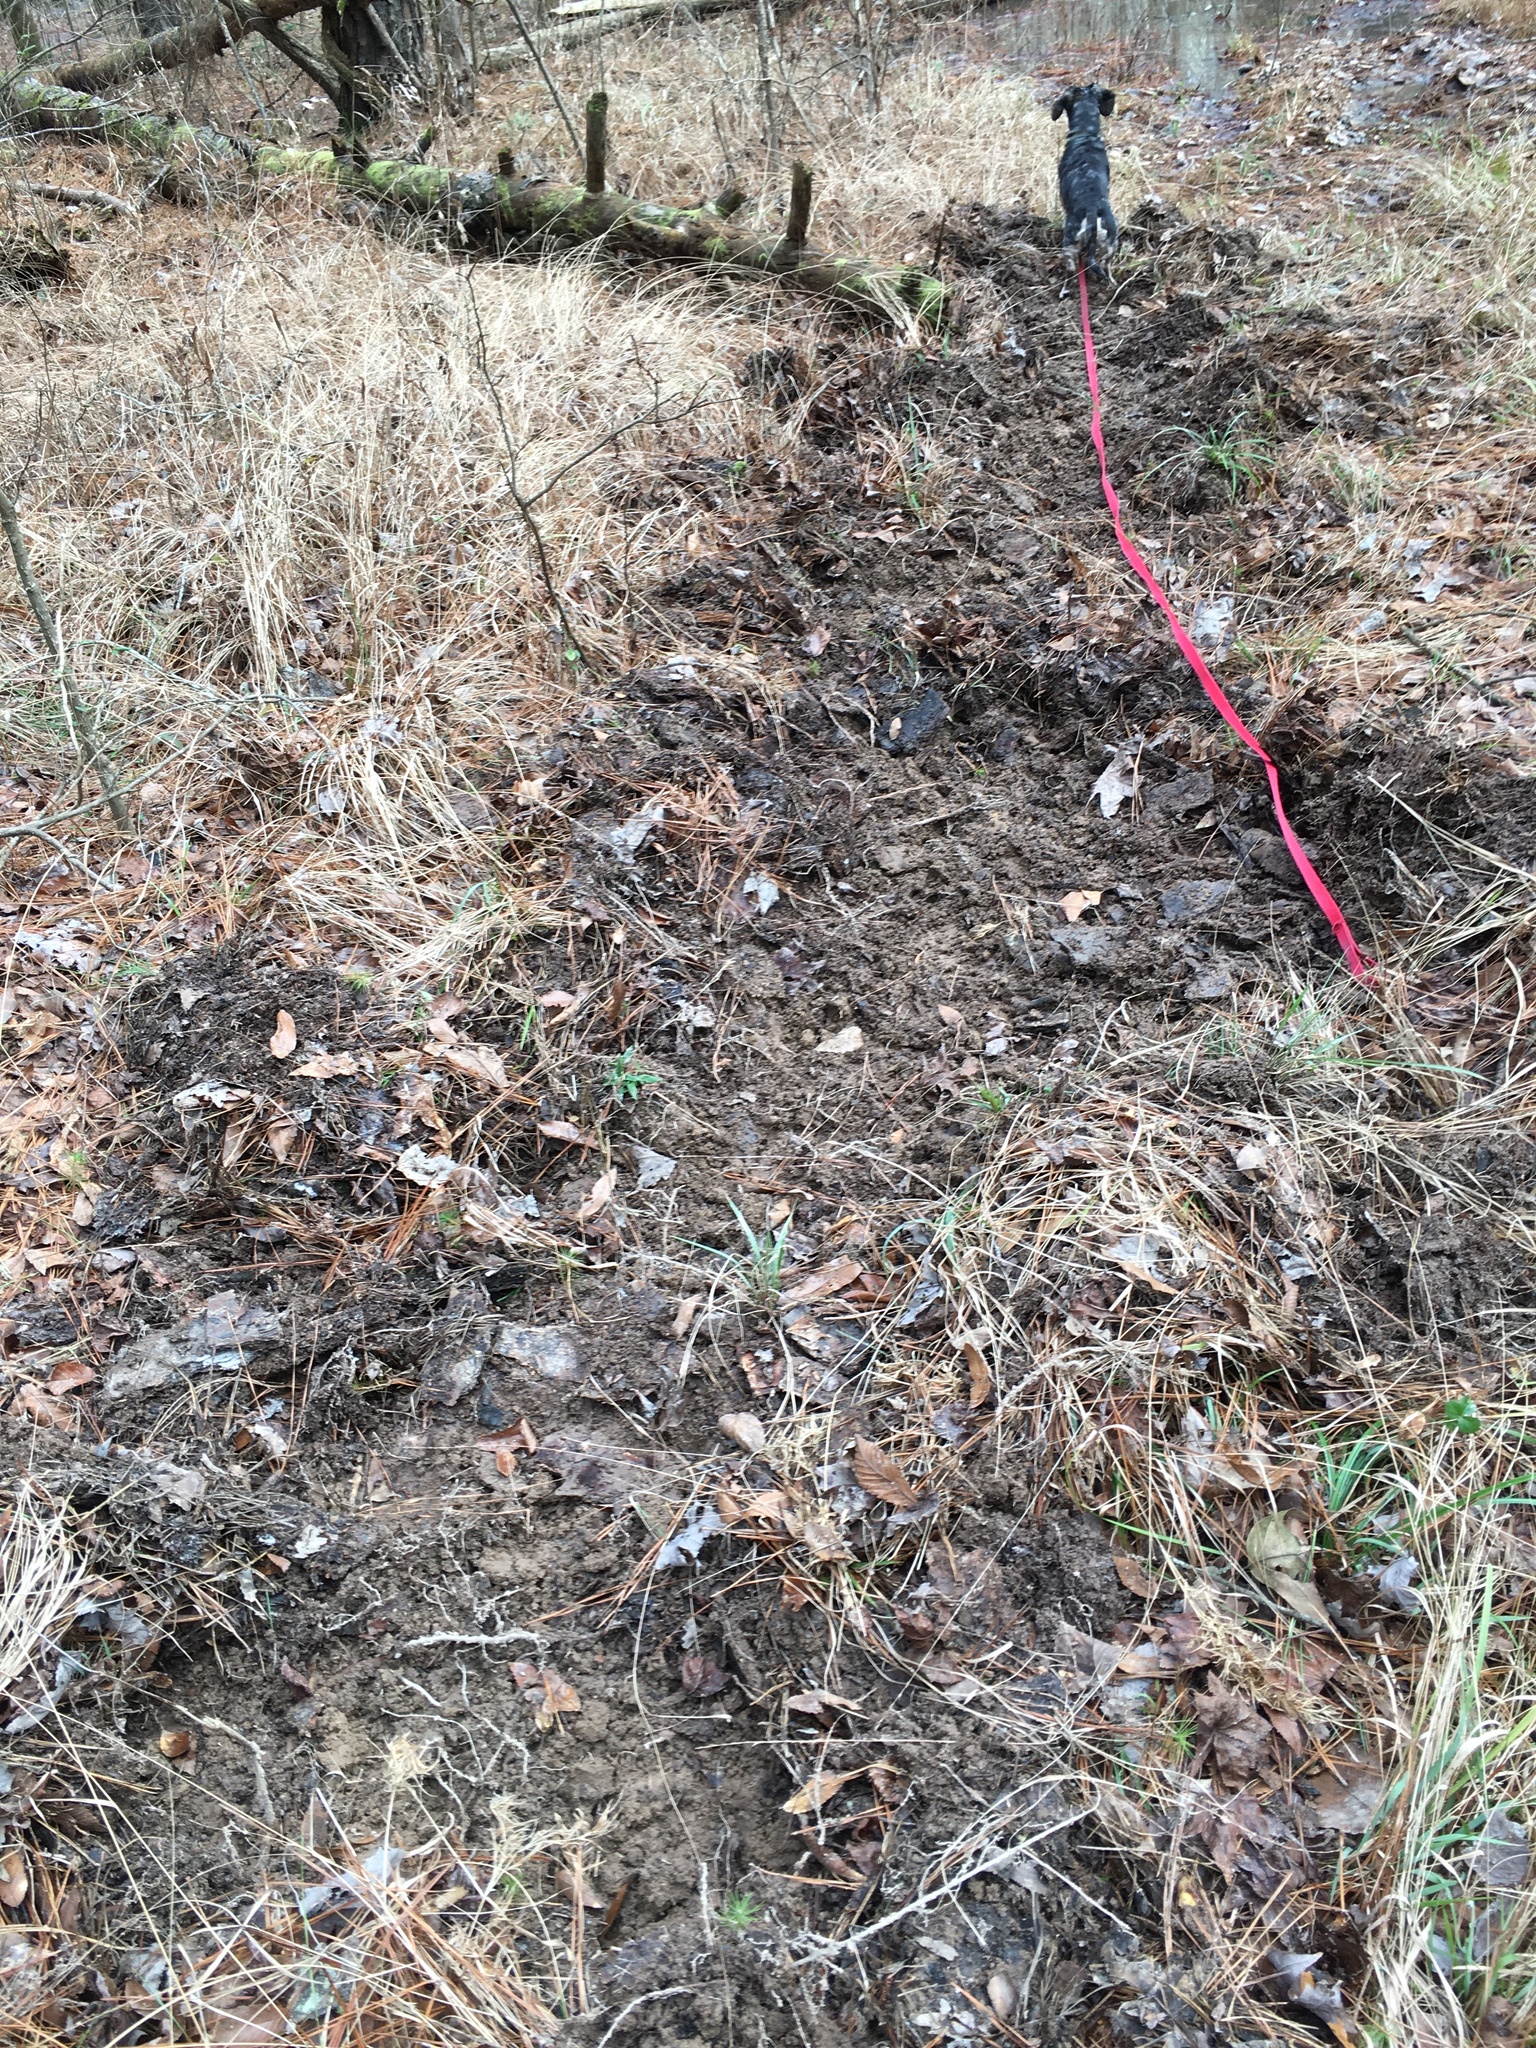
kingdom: Animalia
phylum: Chordata
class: Mammalia
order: Artiodactyla
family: Suidae
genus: Sus
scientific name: Sus scrofa
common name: Wild boar
